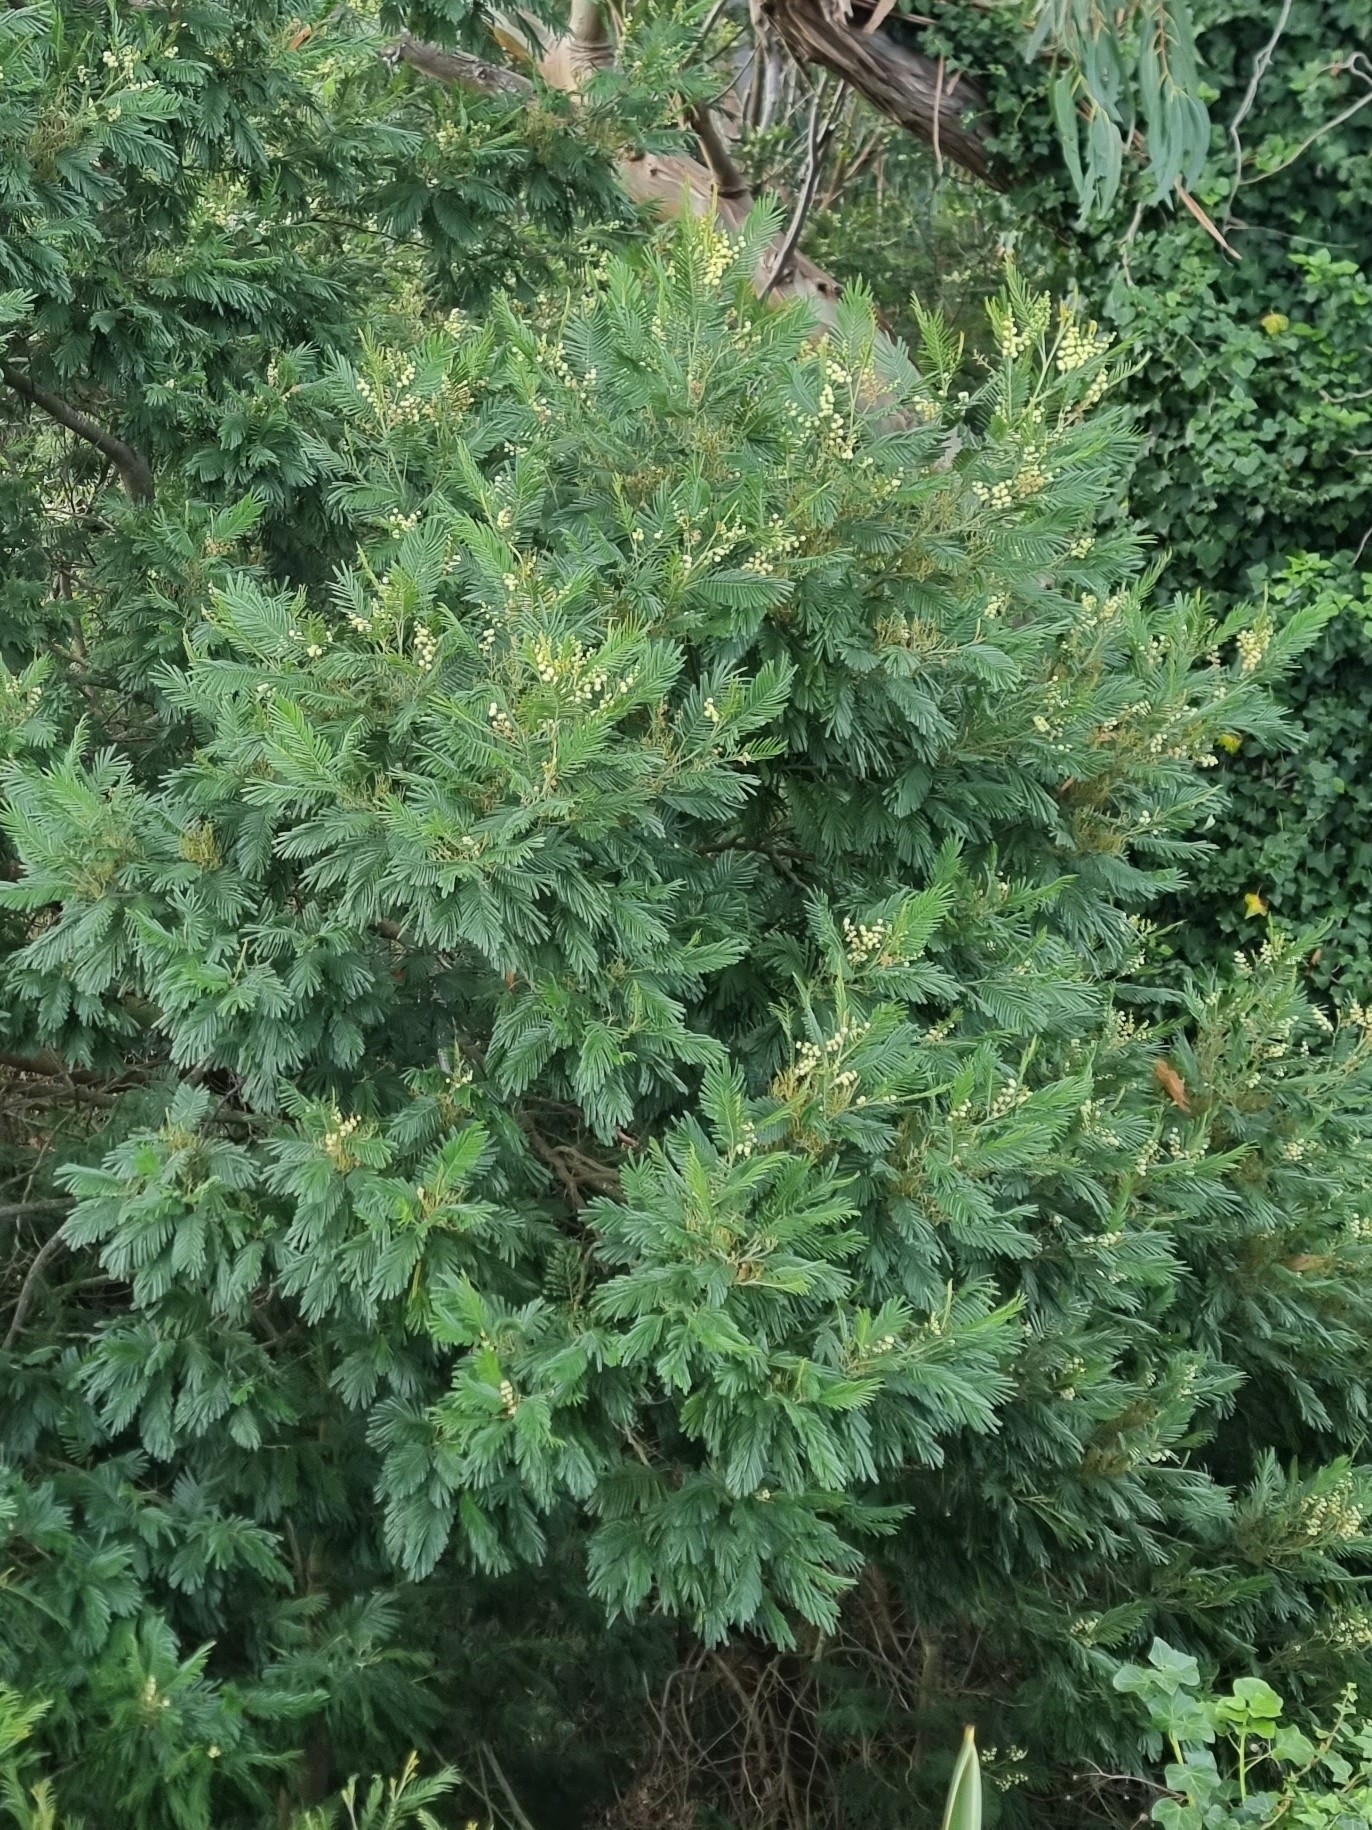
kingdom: Plantae
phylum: Tracheophyta
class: Magnoliopsida
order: Fabales
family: Fabaceae
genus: Acacia
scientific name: Acacia mearnsii
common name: Black wattle
